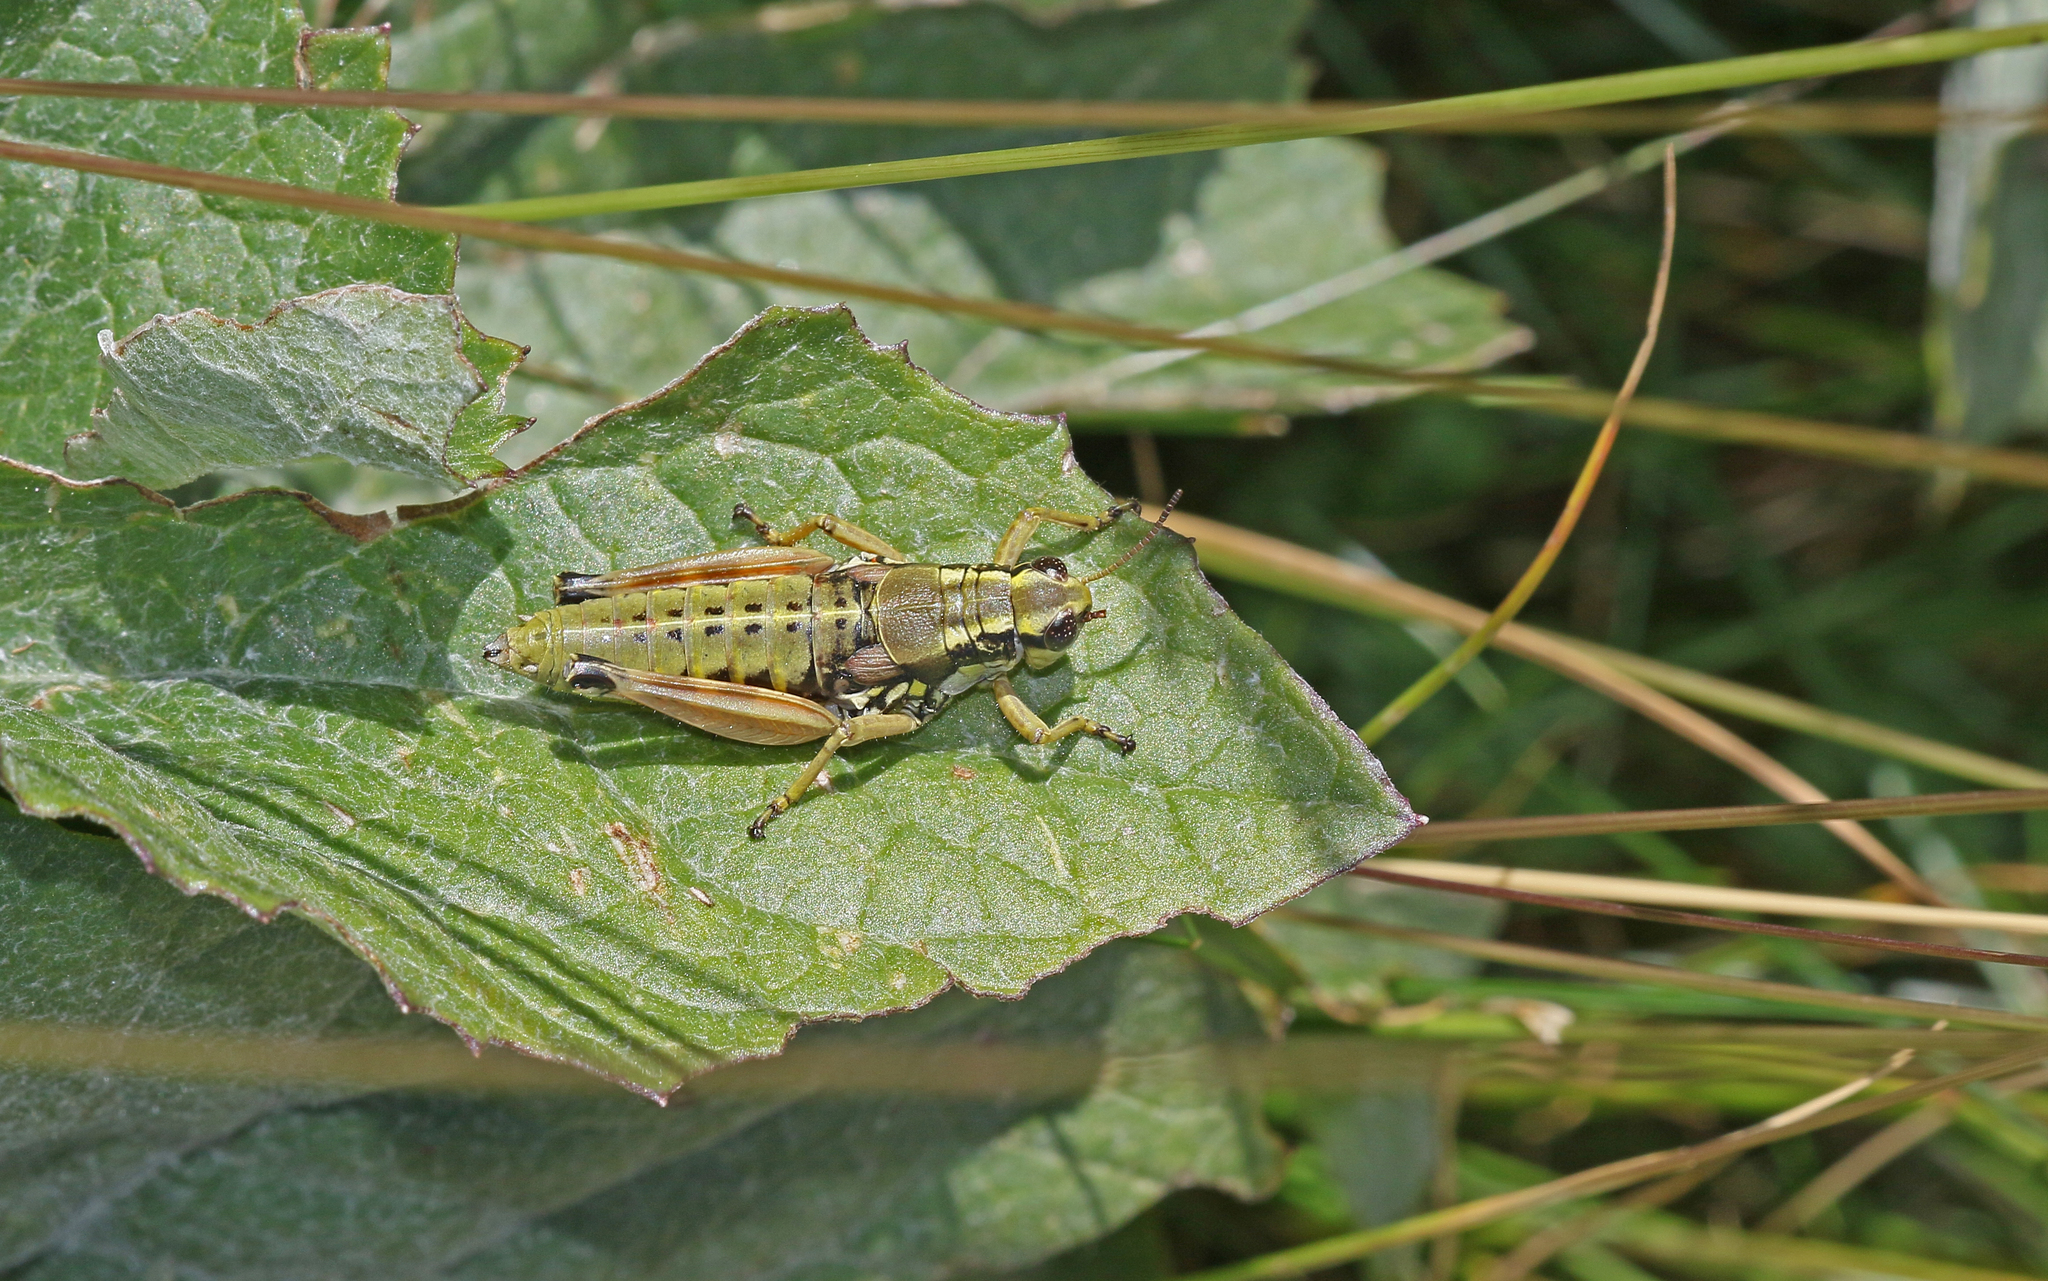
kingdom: Animalia
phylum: Arthropoda
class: Insecta
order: Orthoptera
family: Acrididae
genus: Podisma
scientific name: Podisma dechambrei
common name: Alpes-maritimes mountain grasshopper
